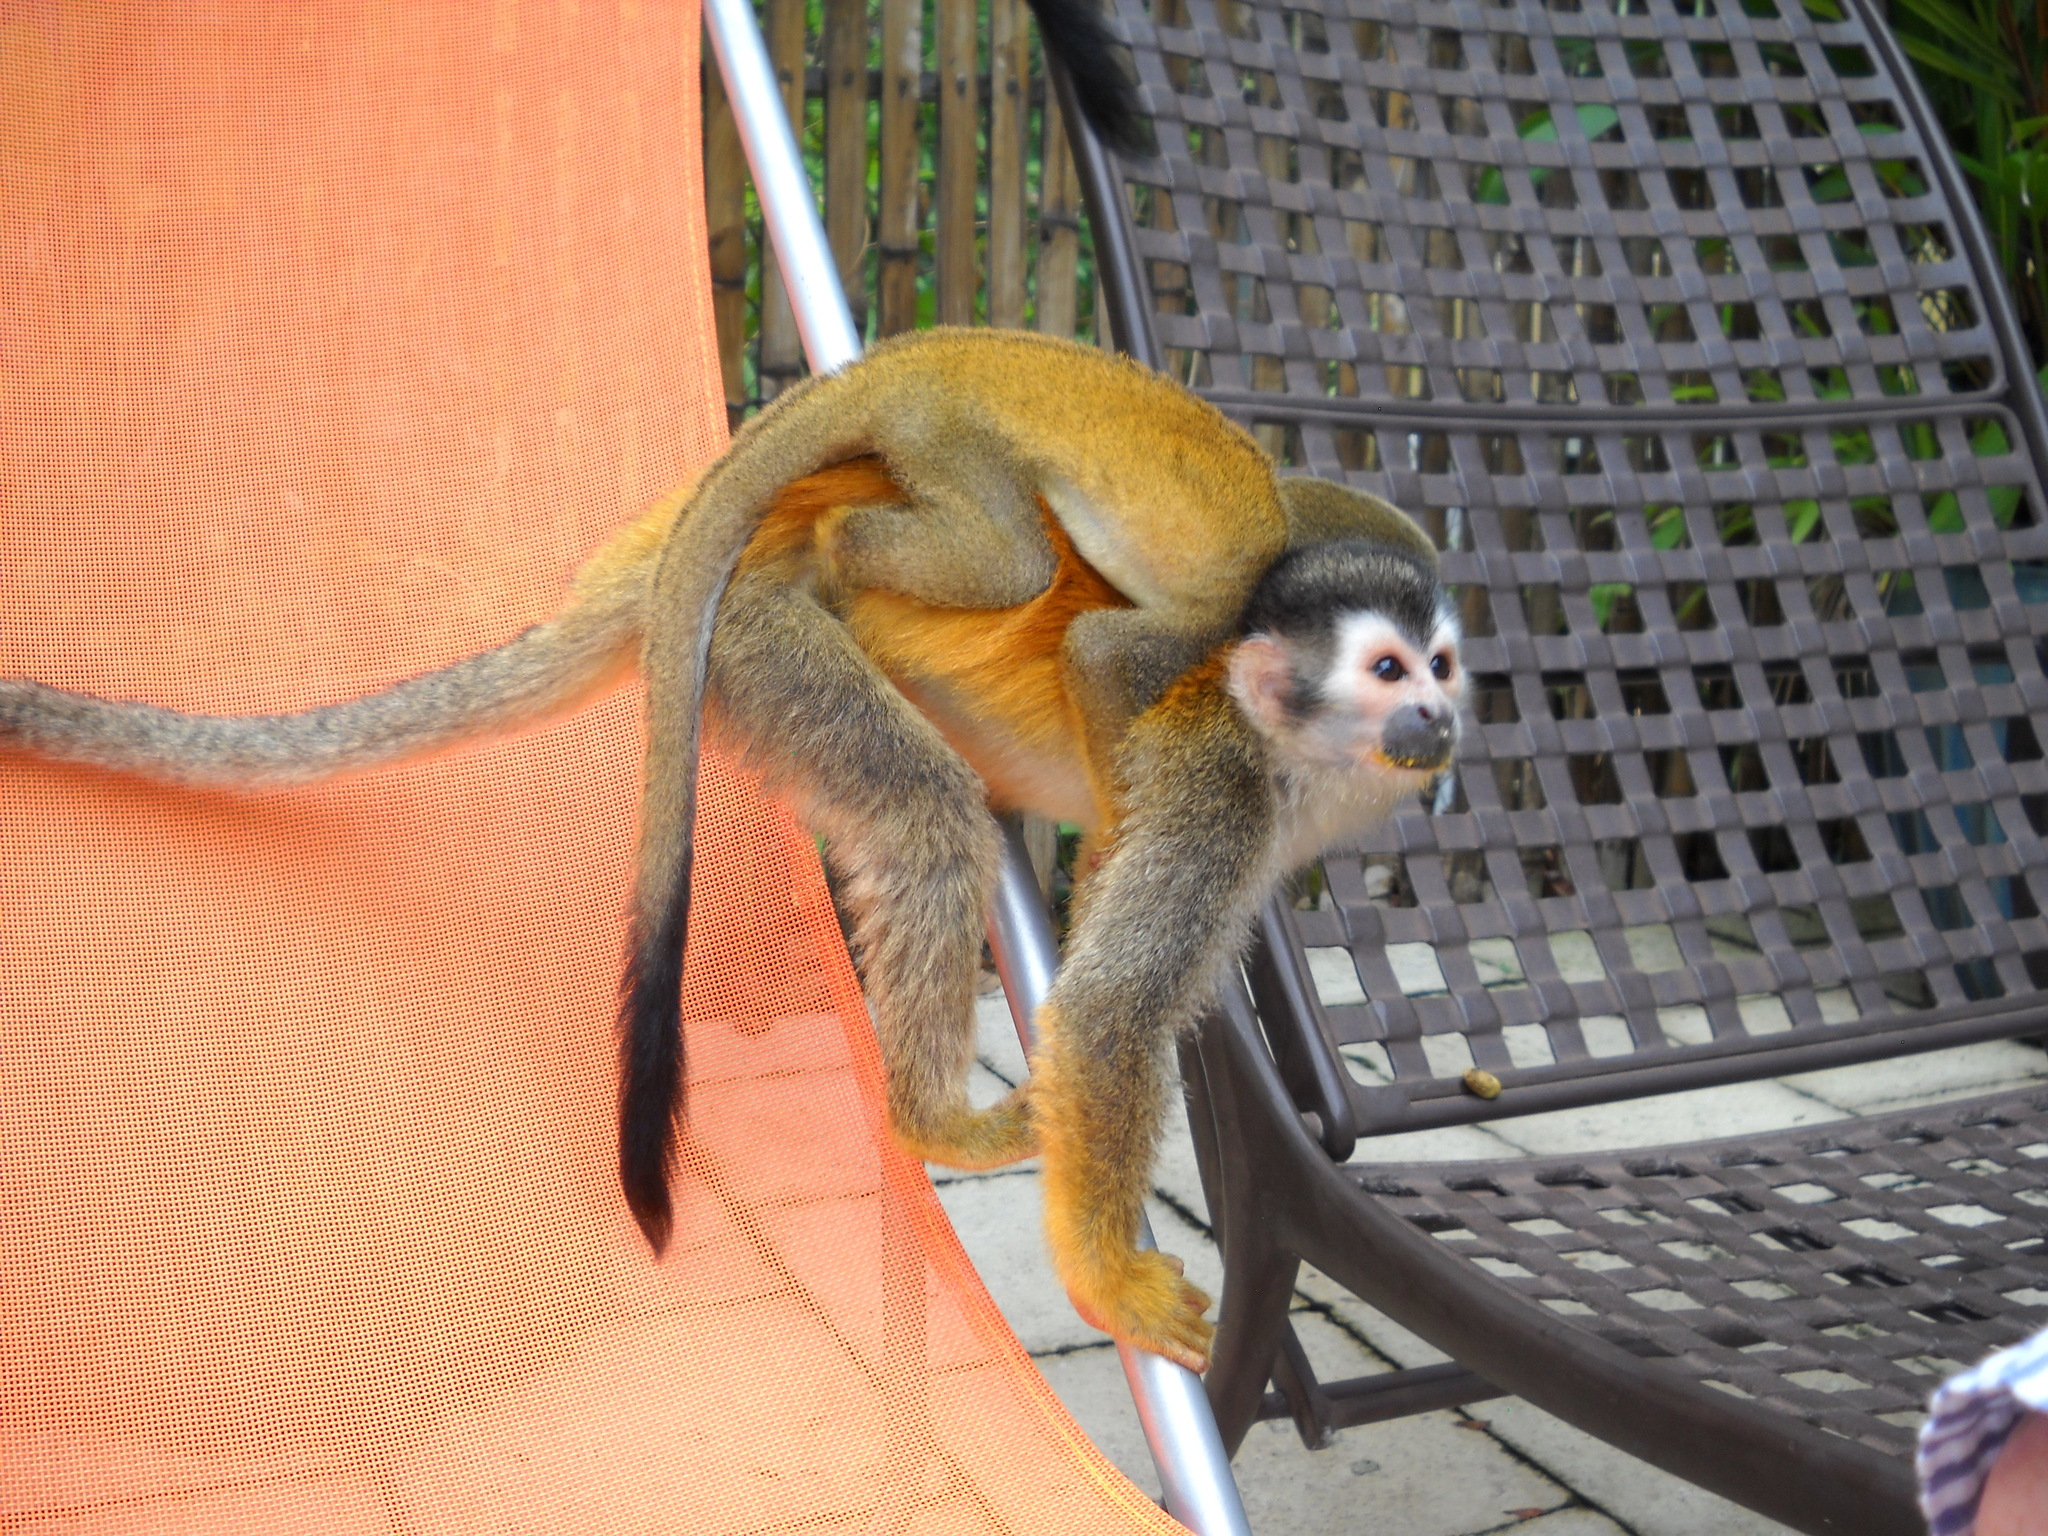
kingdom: Animalia
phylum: Chordata
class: Mammalia
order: Primates
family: Cebidae
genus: Saimiri
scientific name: Saimiri oerstedii
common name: Central american squirrel monkey
